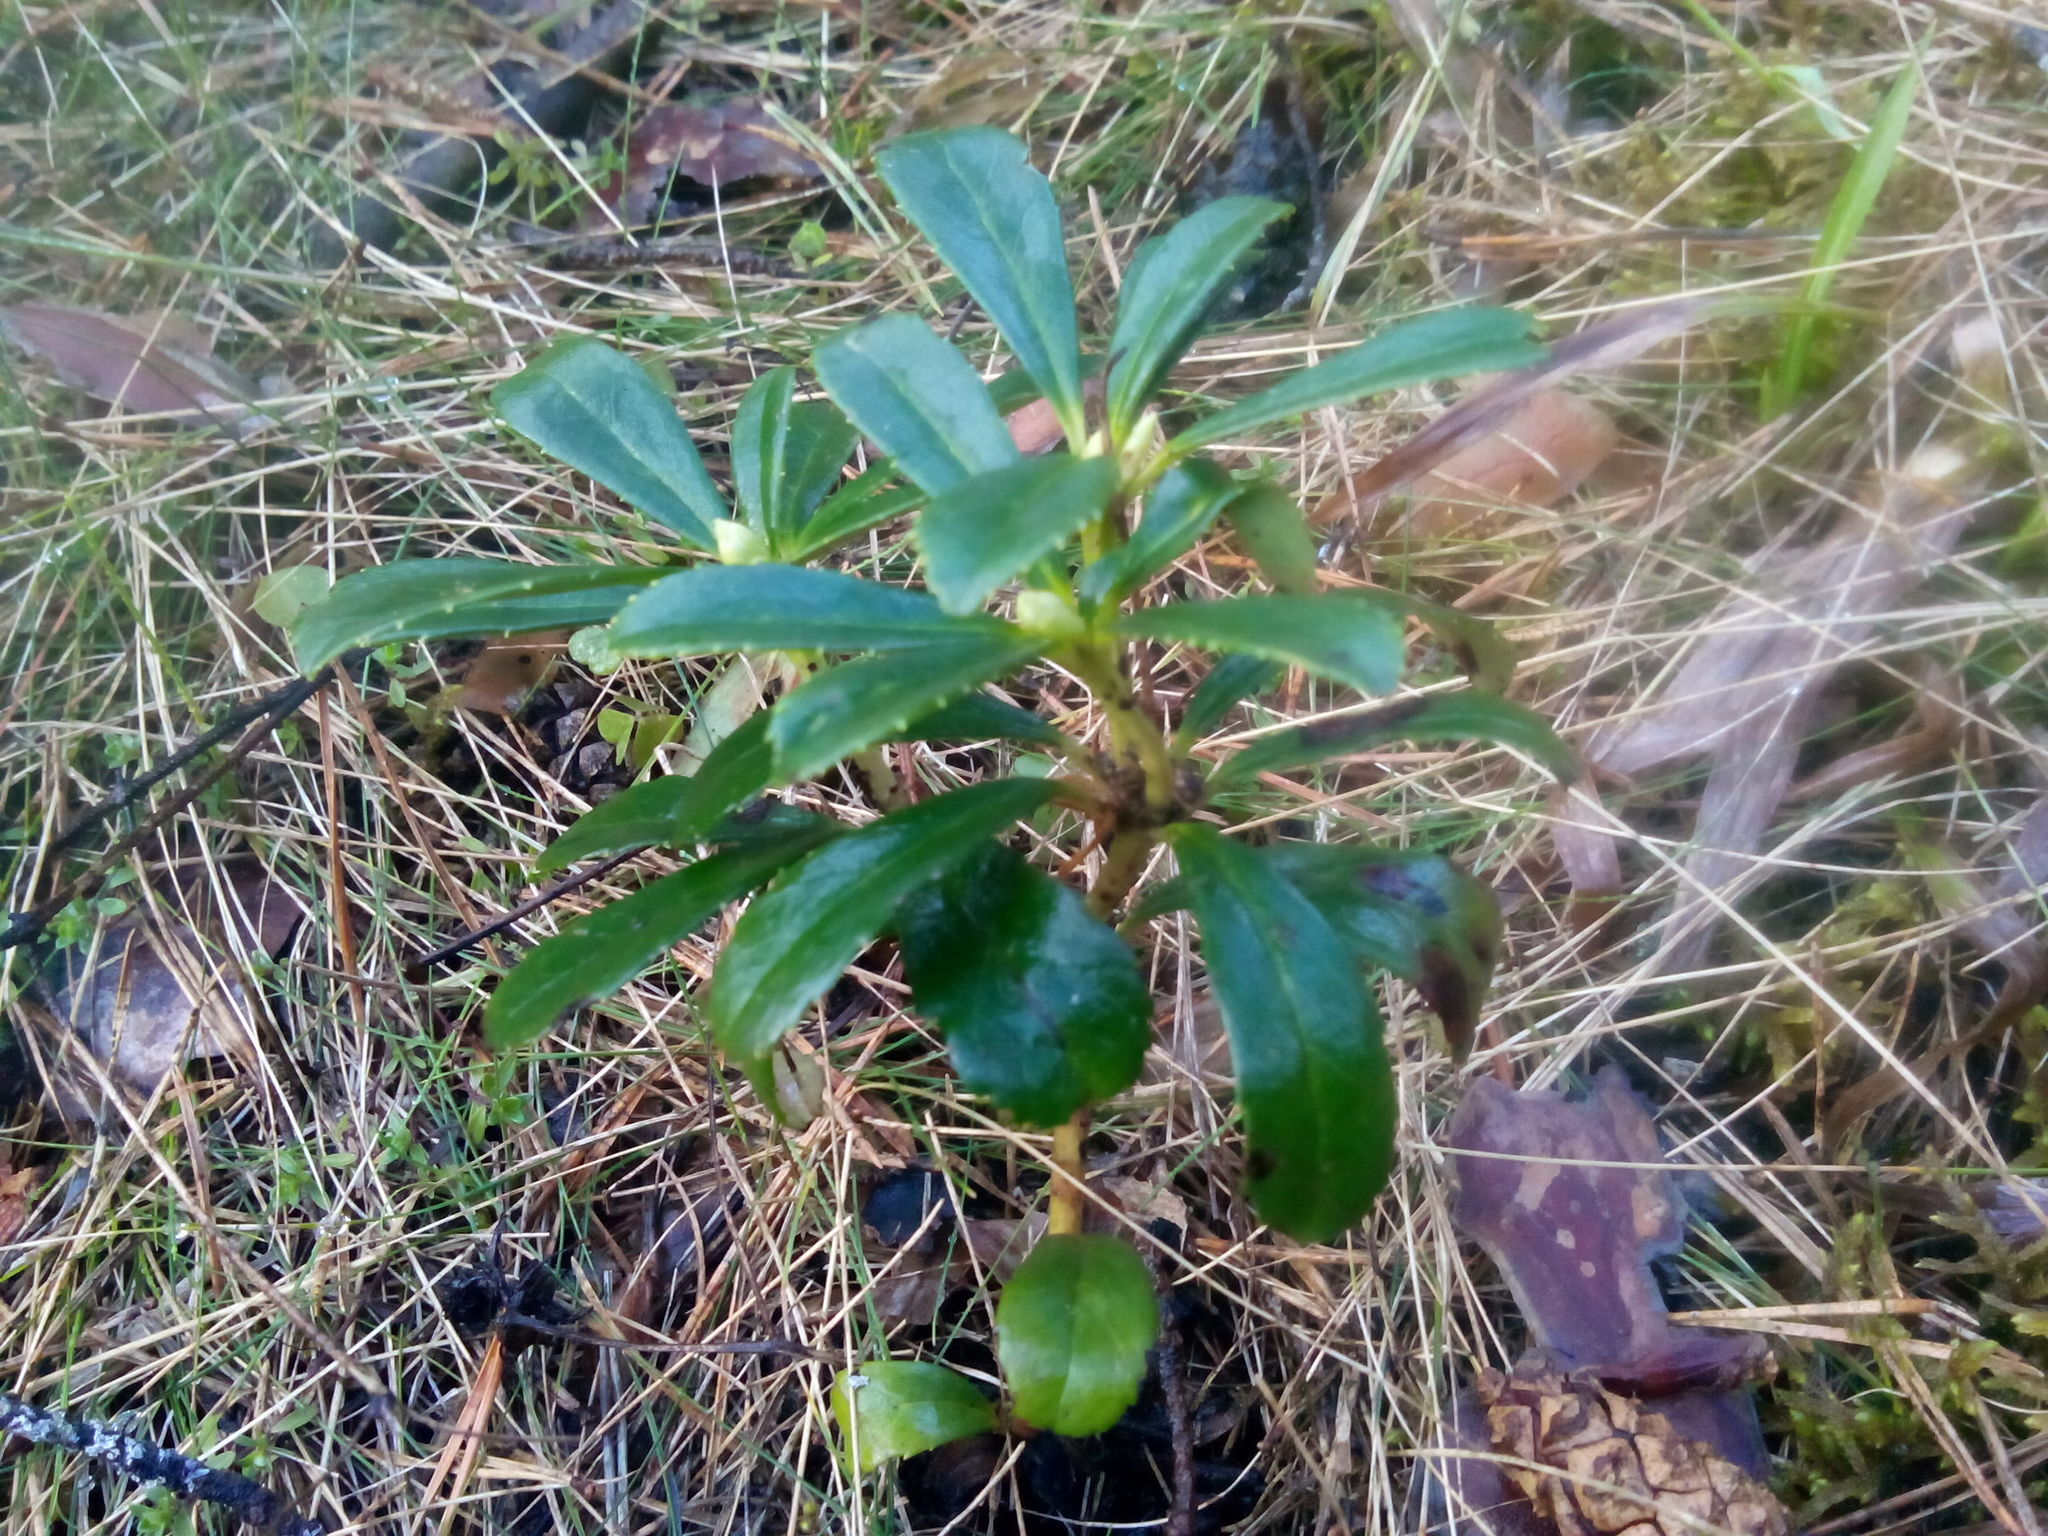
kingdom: Plantae
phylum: Tracheophyta
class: Magnoliopsida
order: Ericales
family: Ericaceae
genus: Chimaphila
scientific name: Chimaphila umbellata
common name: Pipsissewa
